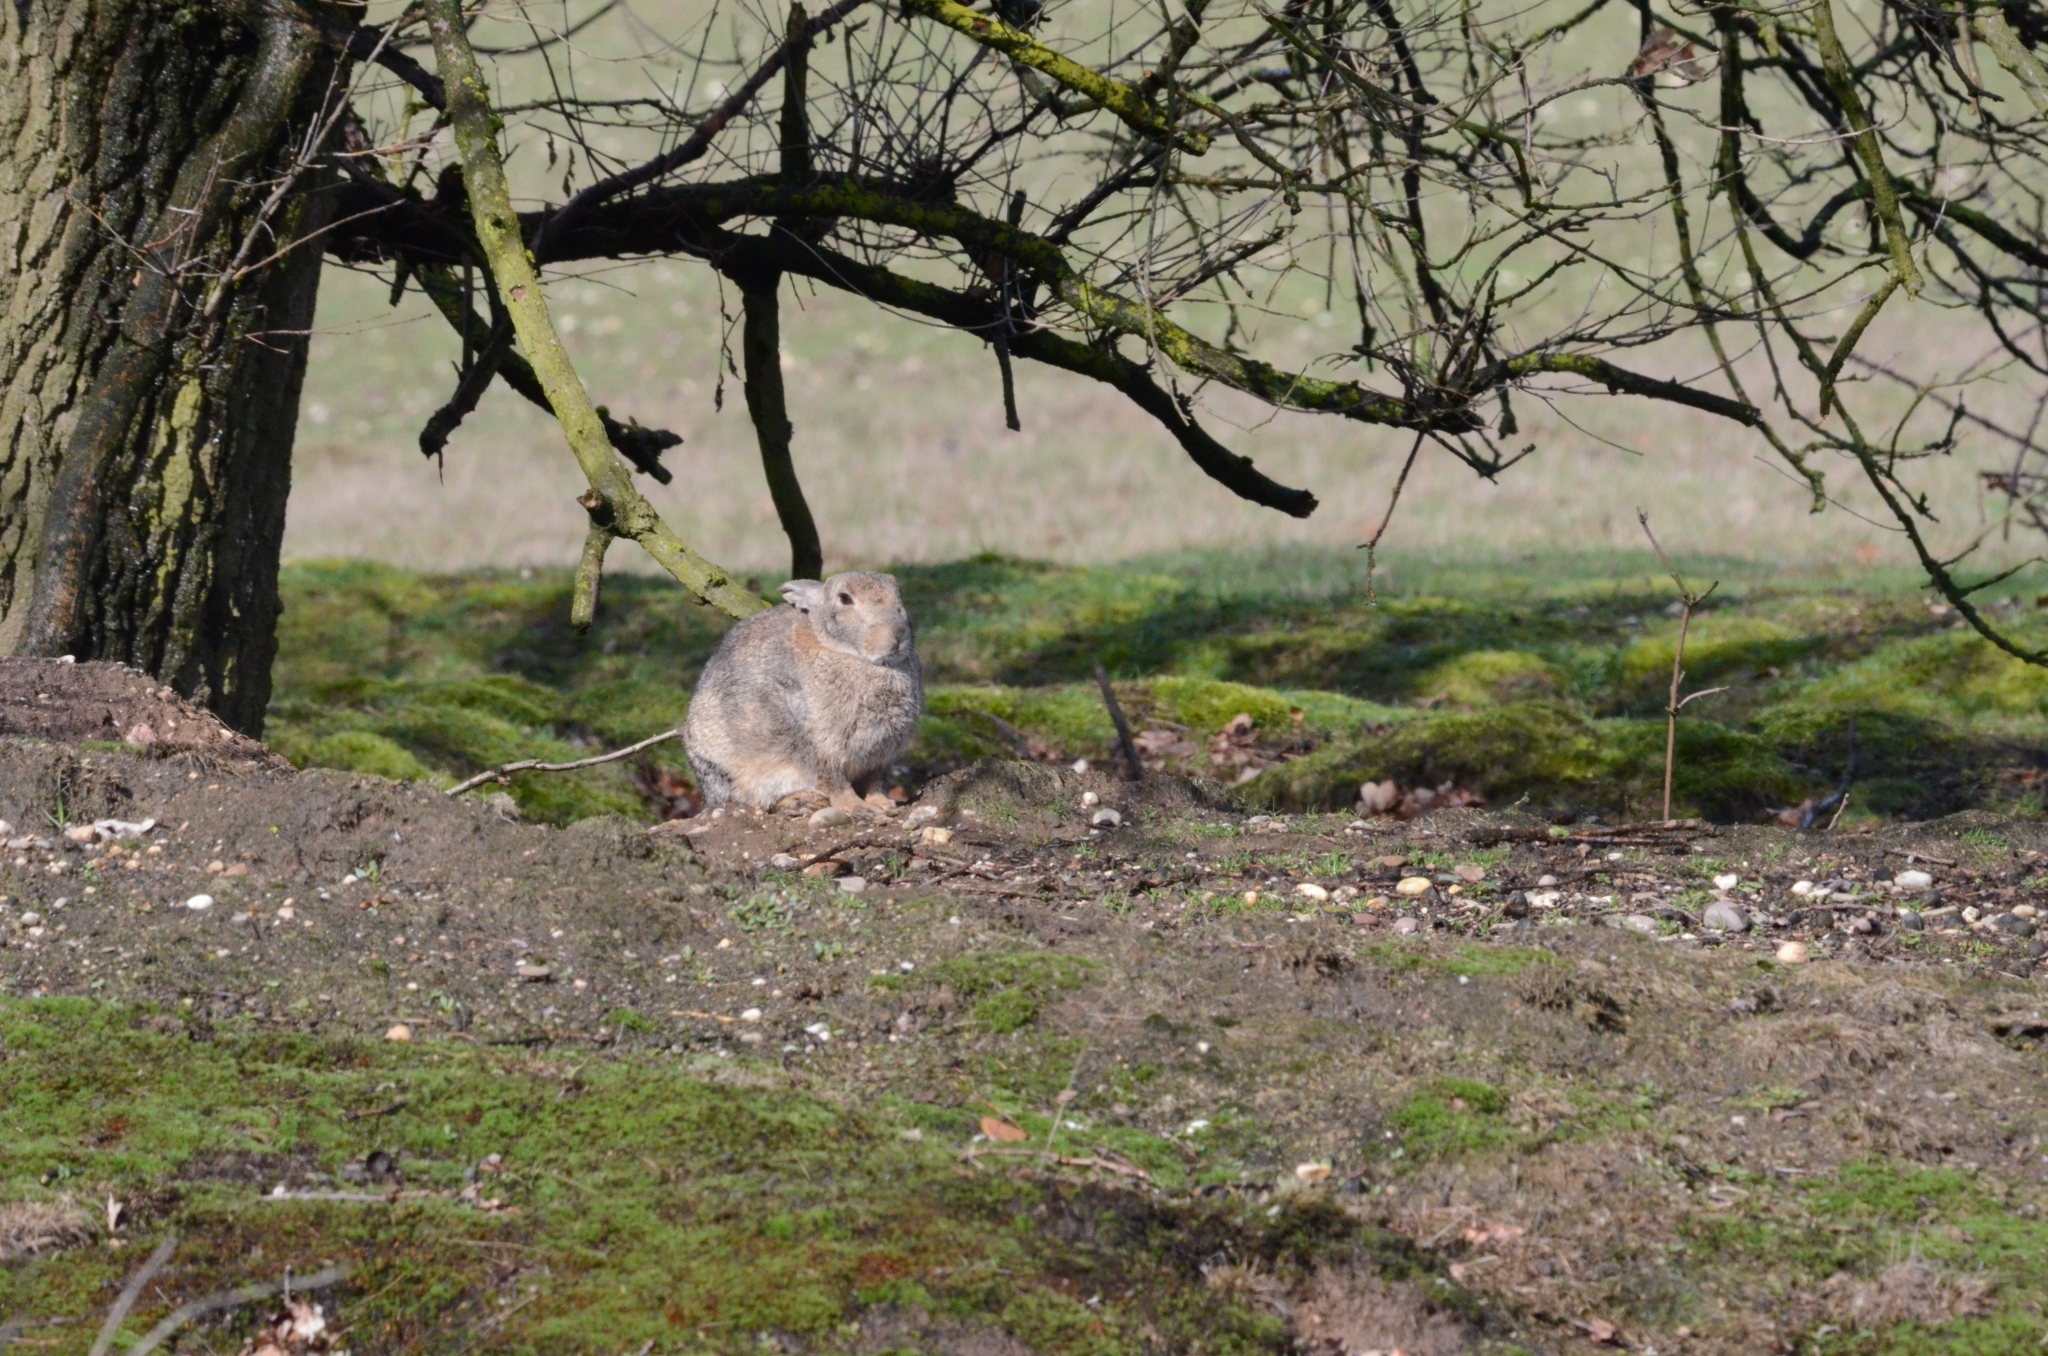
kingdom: Animalia
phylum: Chordata
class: Mammalia
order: Lagomorpha
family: Leporidae
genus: Oryctolagus
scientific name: Oryctolagus cuniculus
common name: European rabbit
